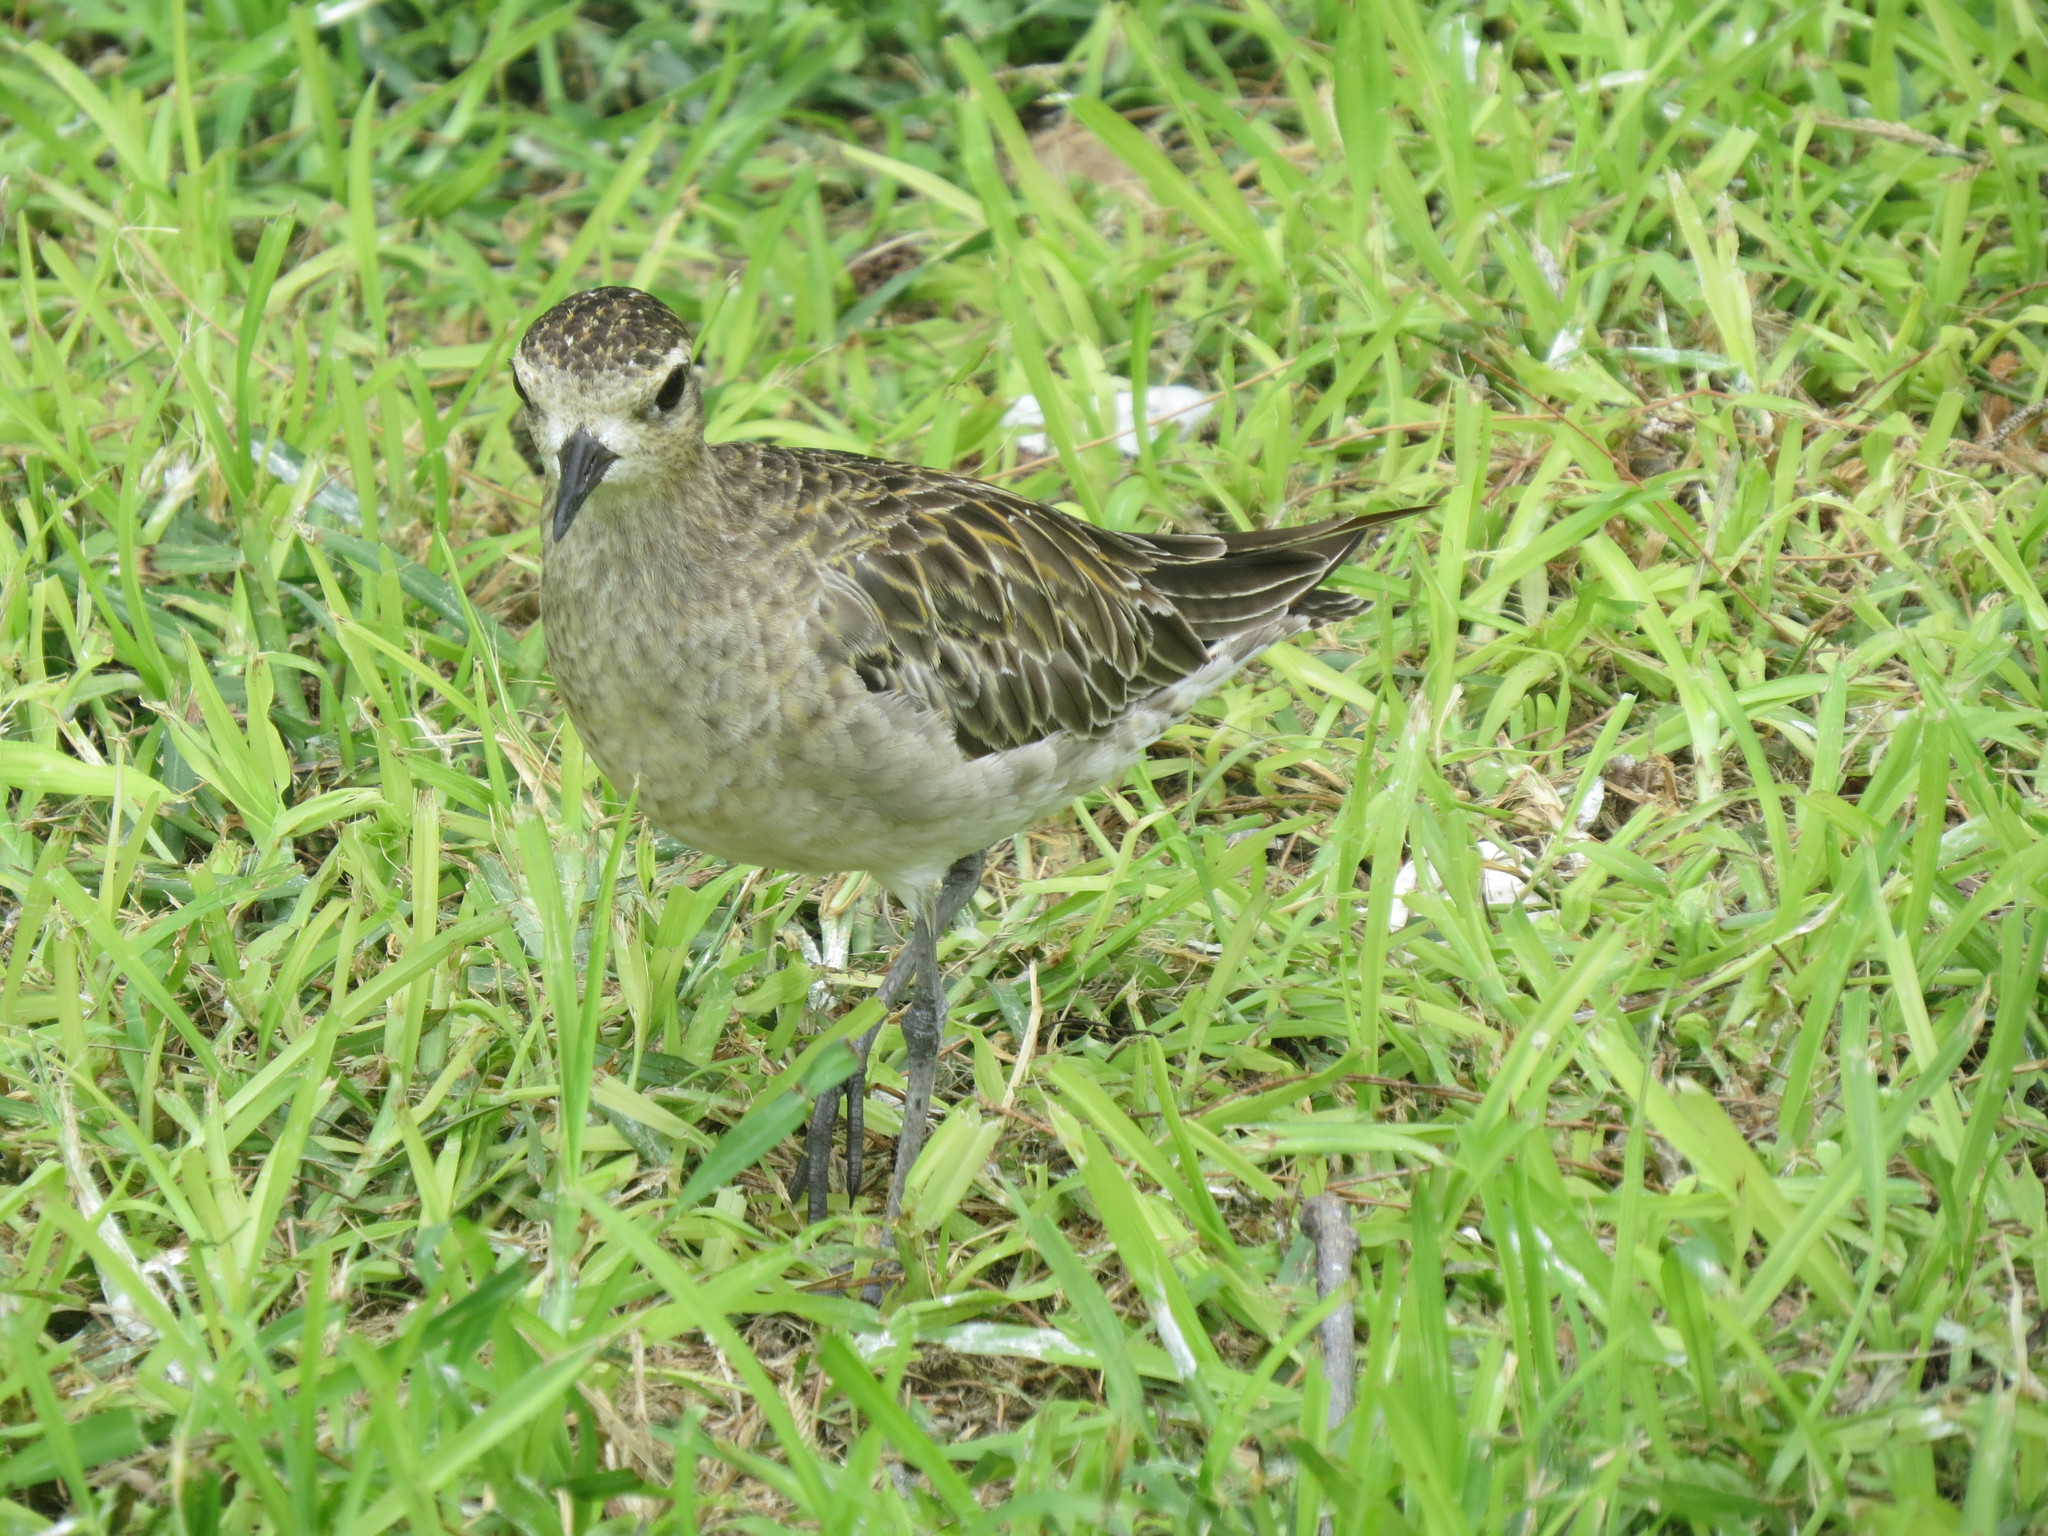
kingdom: Animalia
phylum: Chordata
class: Aves
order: Charadriiformes
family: Charadriidae
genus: Pluvialis
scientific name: Pluvialis fulva
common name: Pacific golden plover
